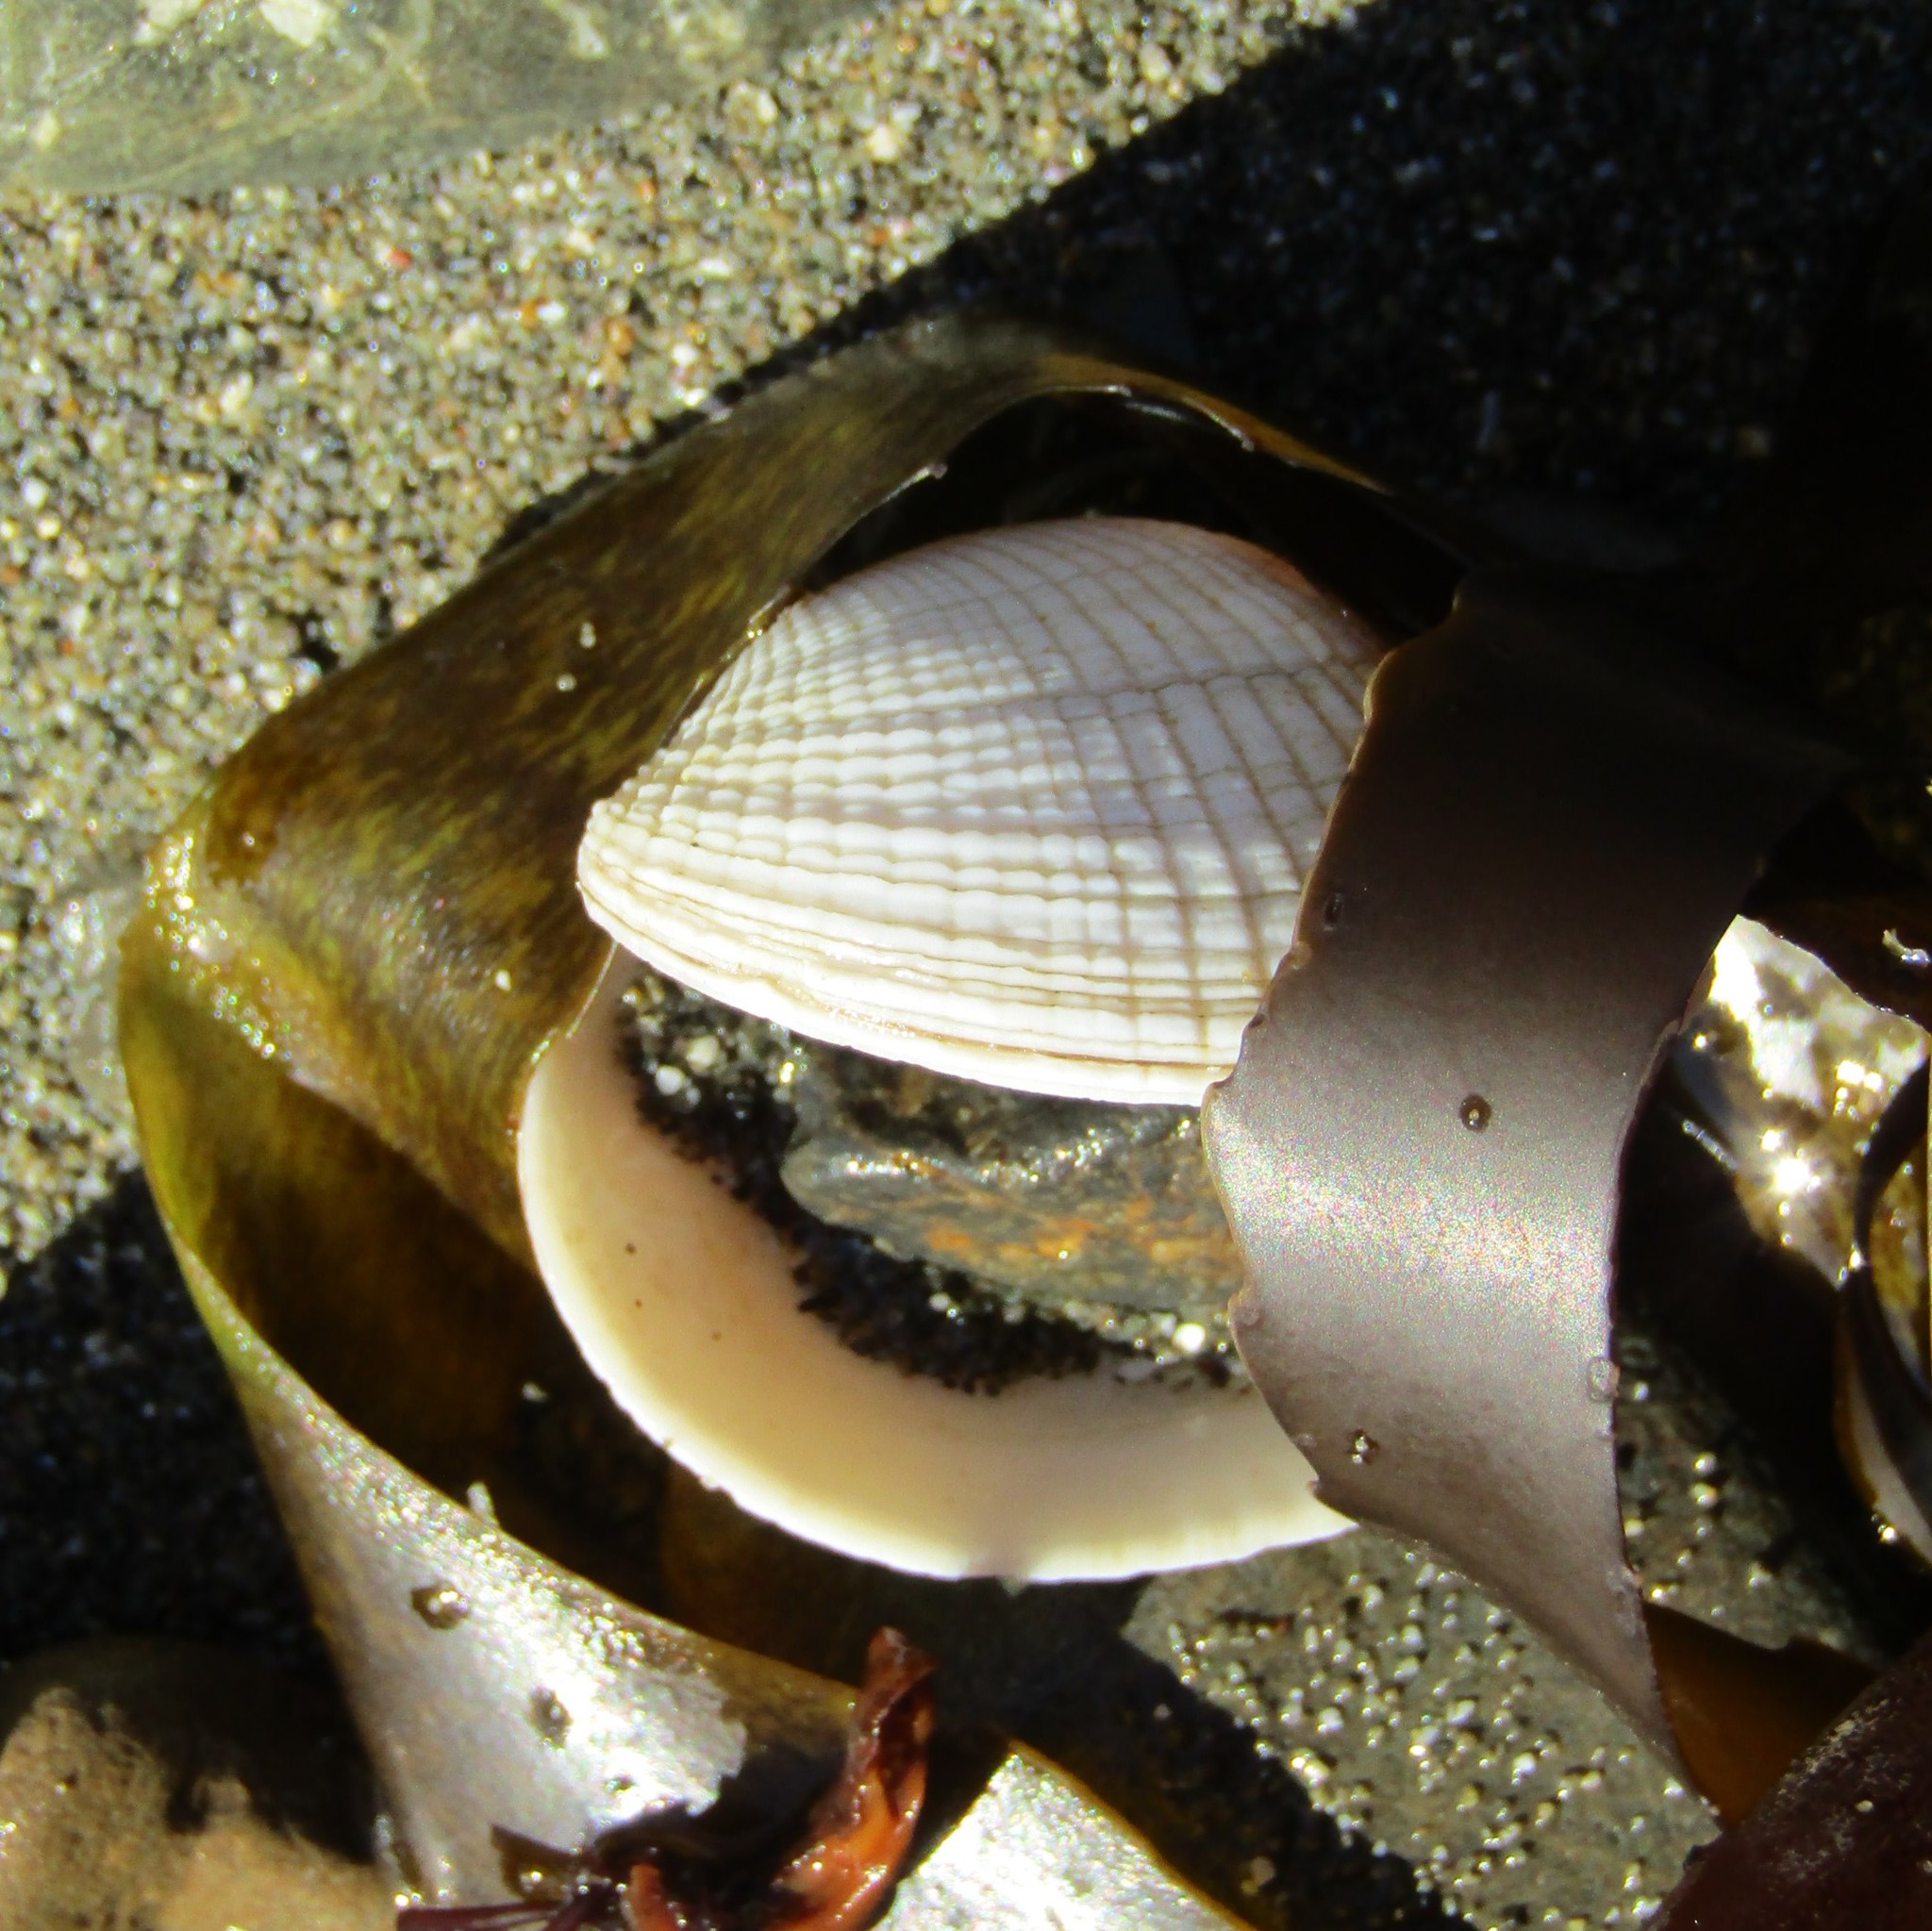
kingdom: Animalia
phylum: Mollusca
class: Bivalvia
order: Venerida
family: Veneridae
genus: Leukoma
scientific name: Leukoma crassicosta
